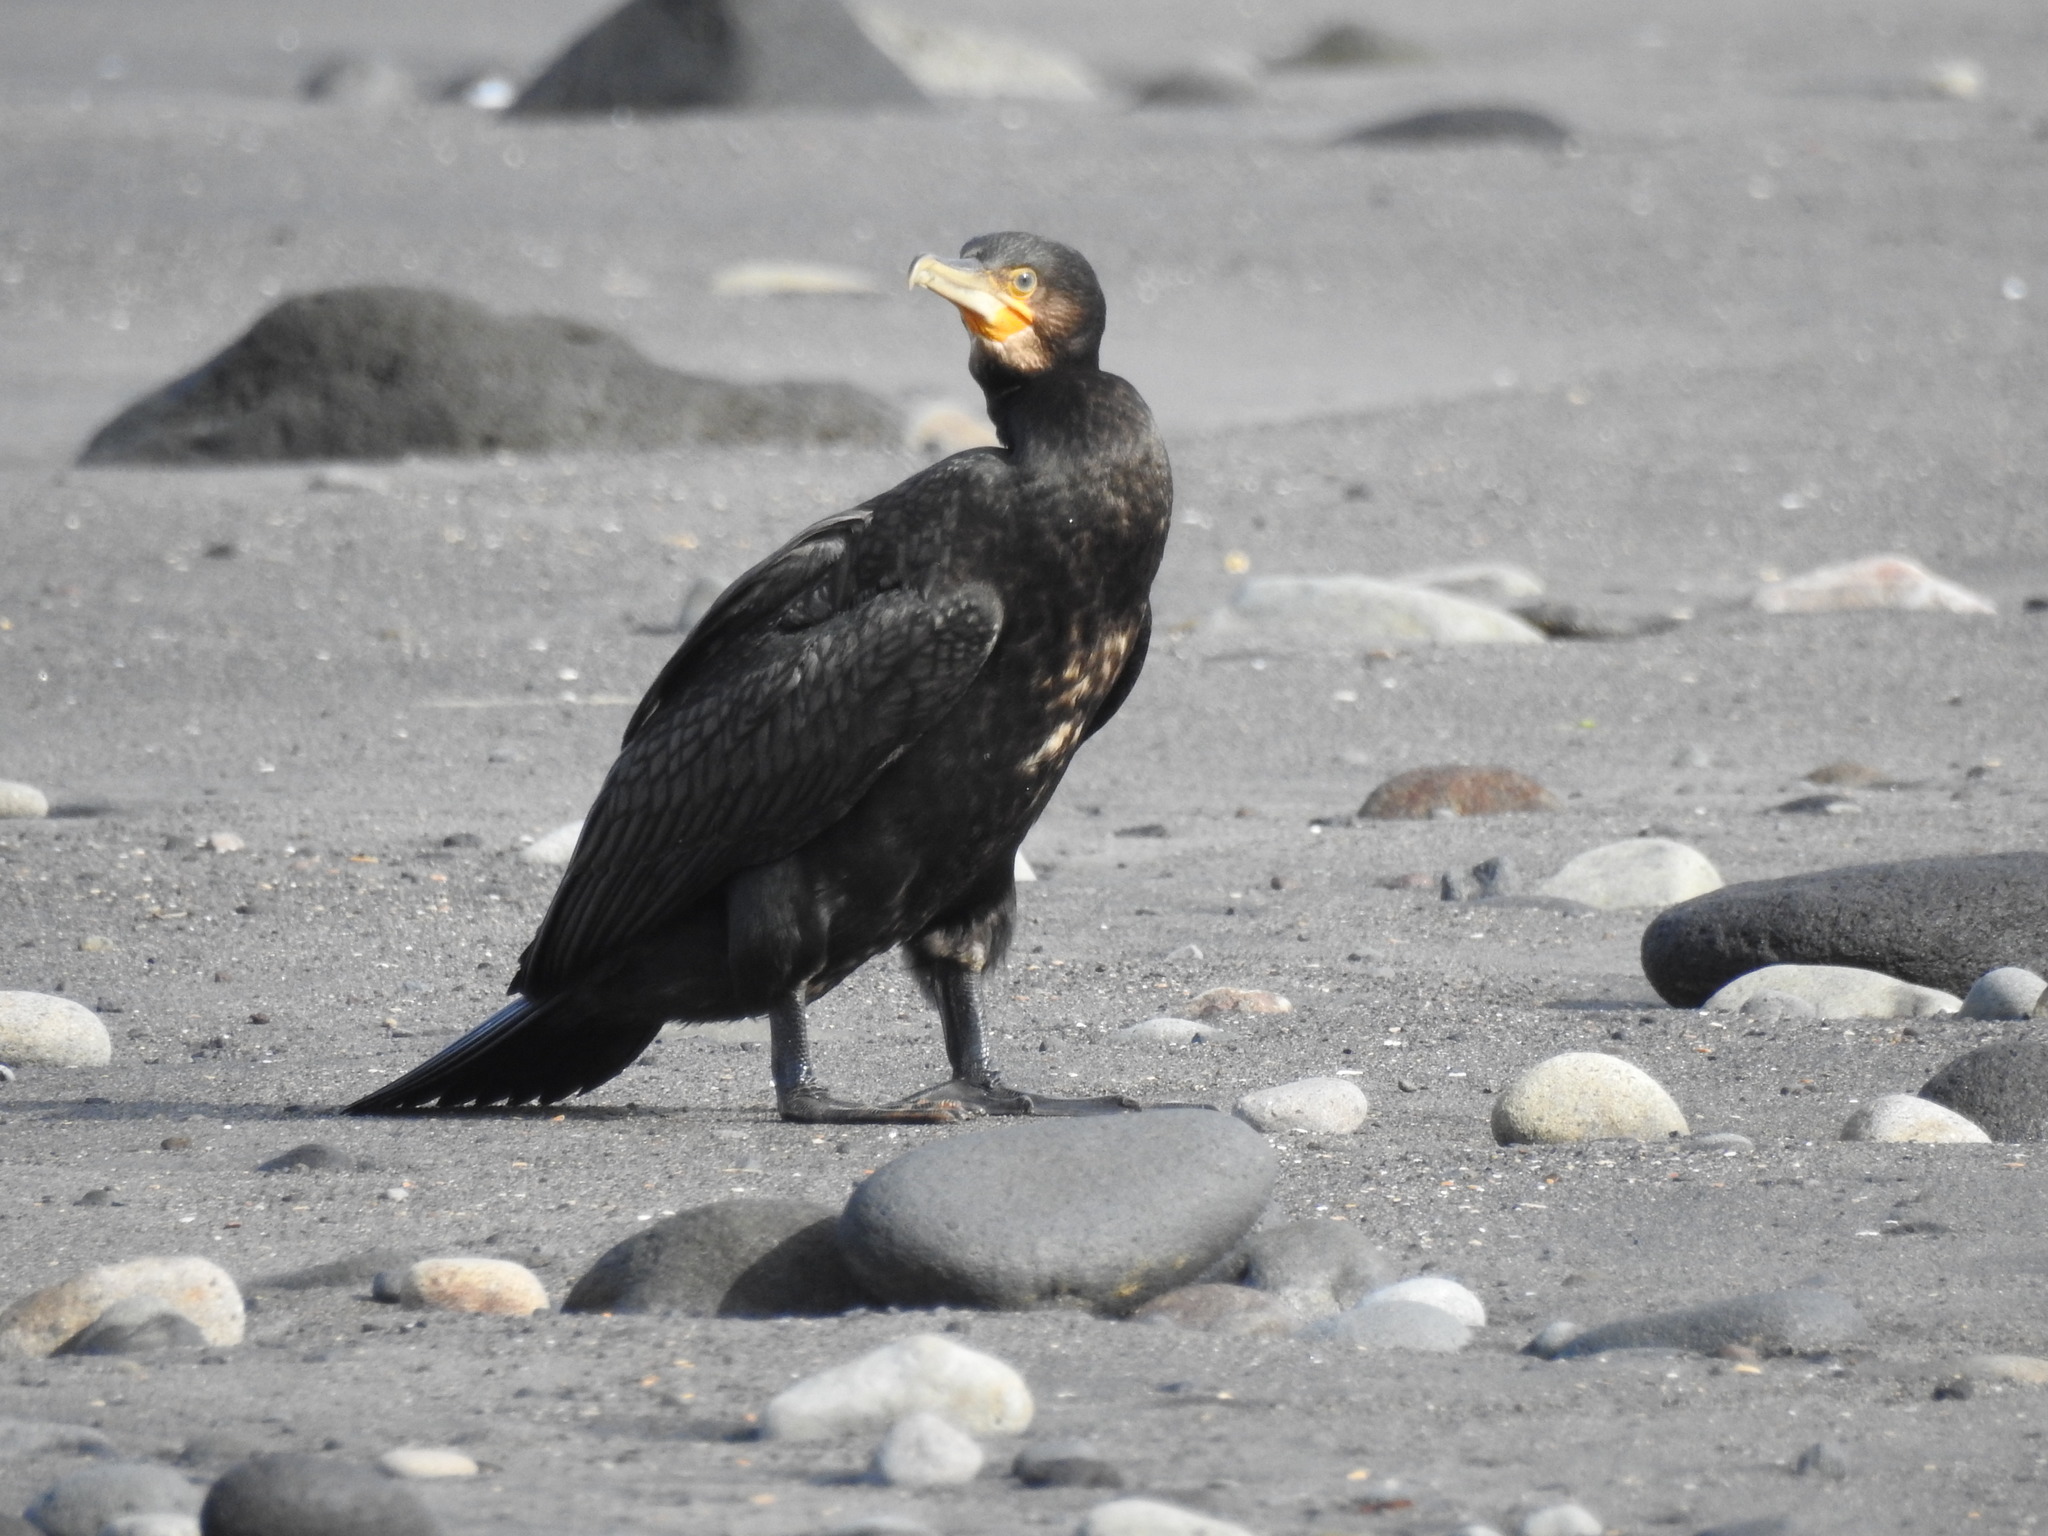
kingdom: Animalia
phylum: Chordata
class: Aves
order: Suliformes
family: Phalacrocoracidae
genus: Phalacrocorax
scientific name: Phalacrocorax carbo
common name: Great cormorant
